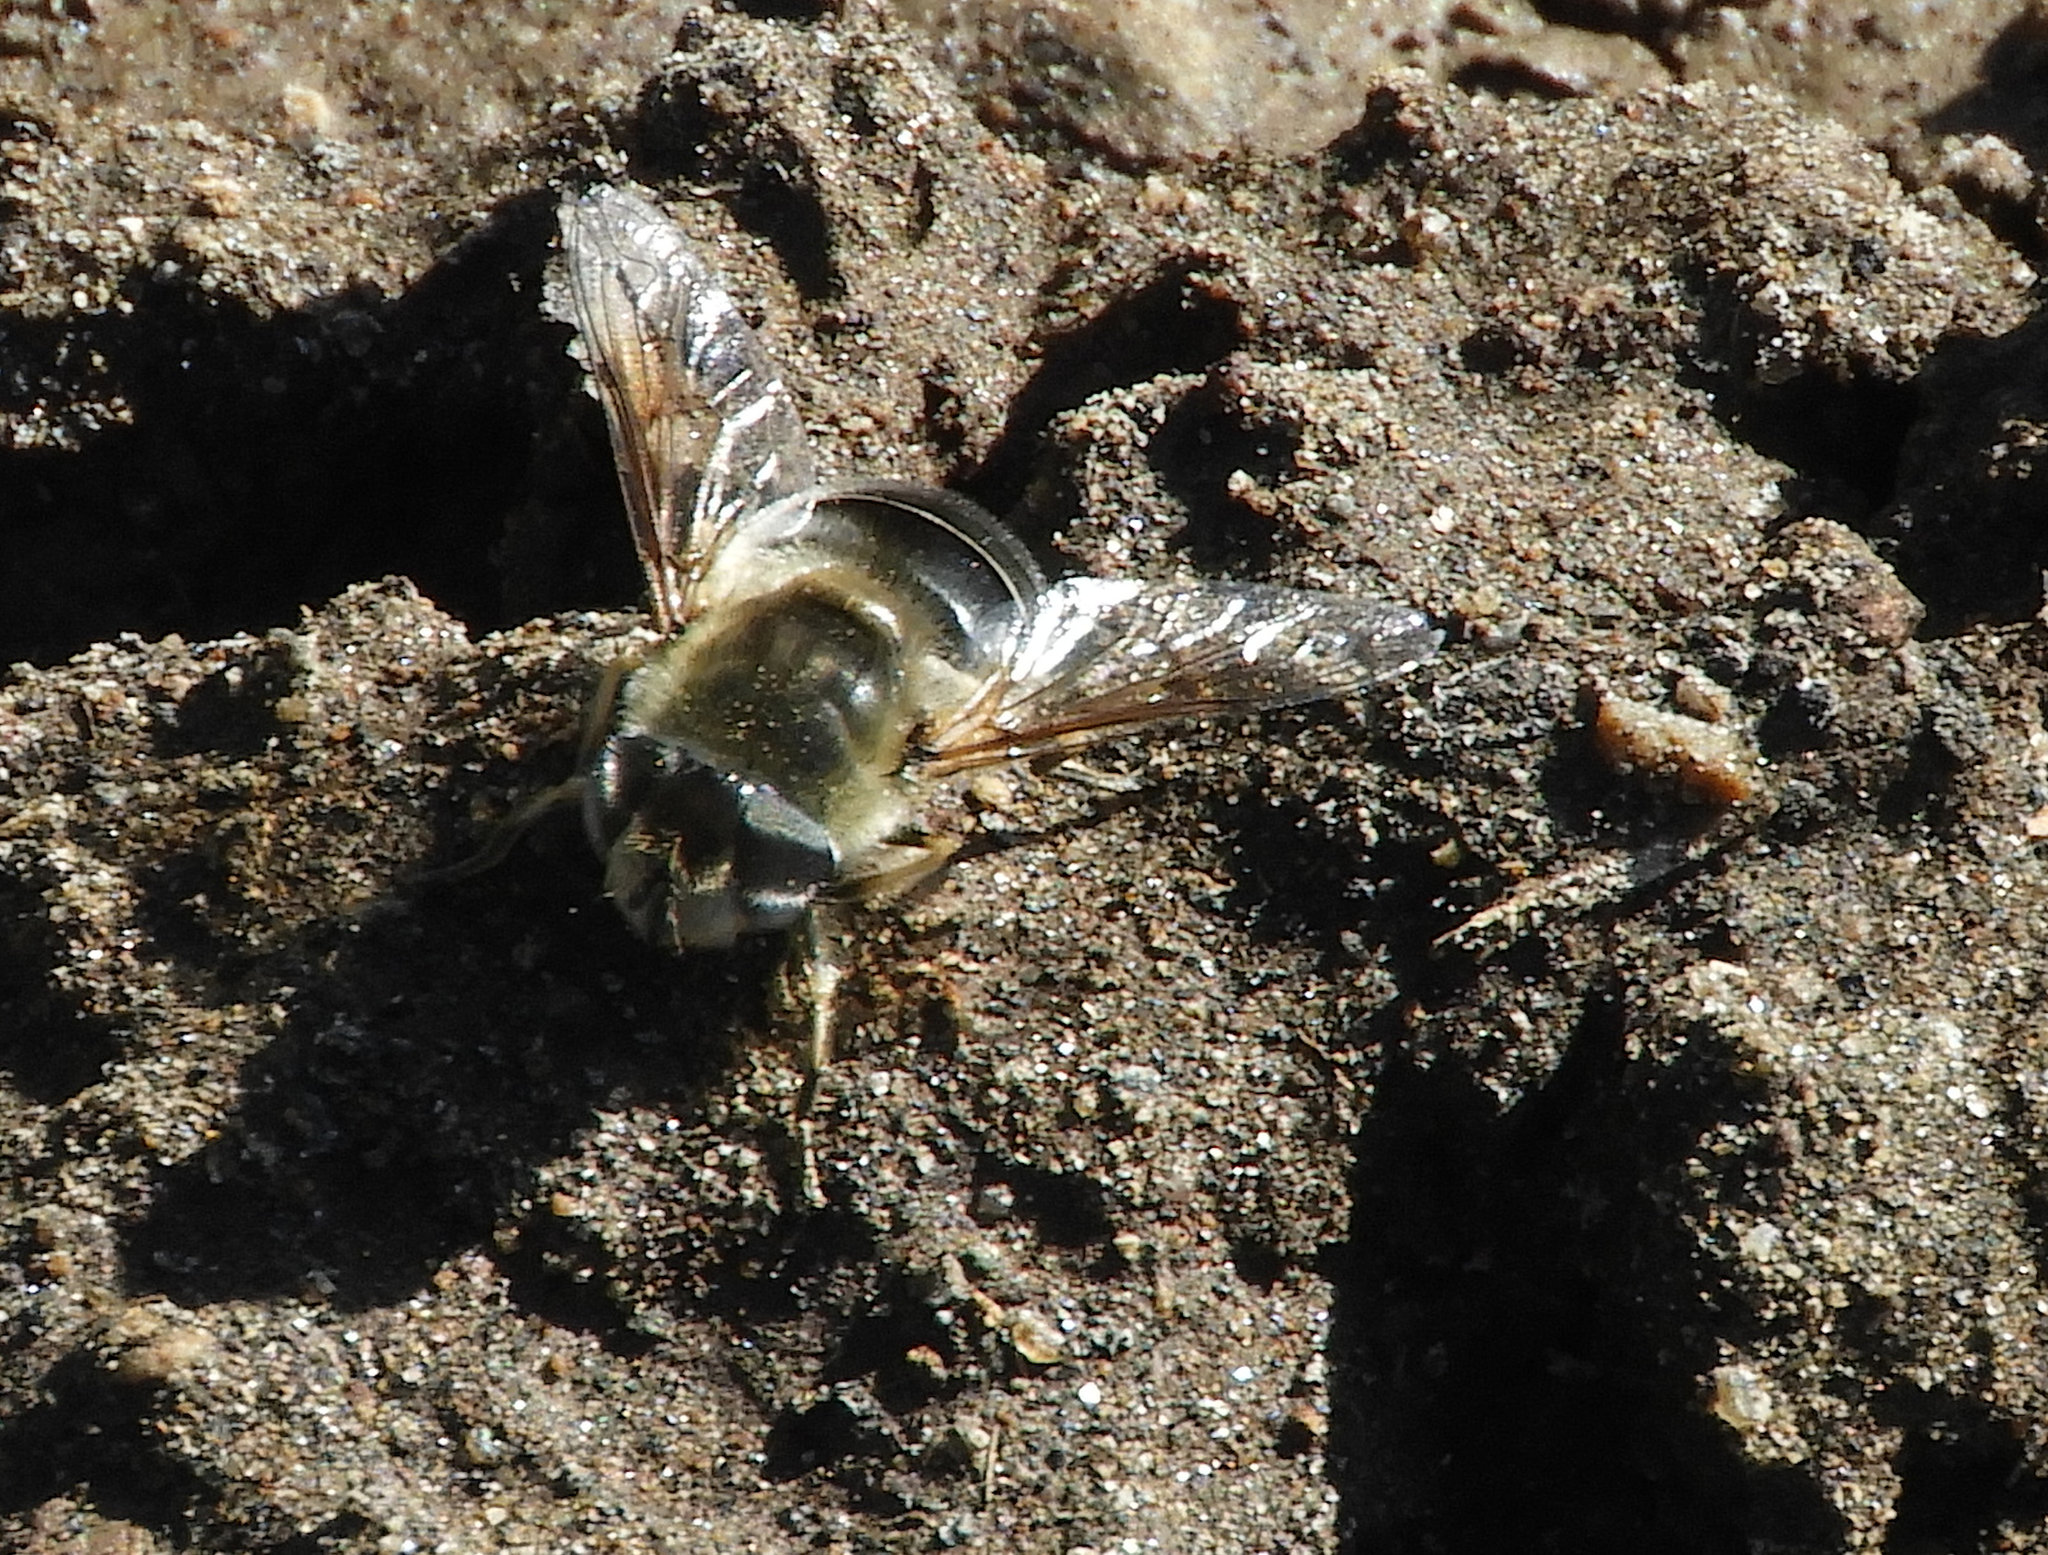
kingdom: Animalia
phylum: Arthropoda
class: Insecta
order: Diptera
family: Syrphidae
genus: Eristalis
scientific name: Eristalis stipator
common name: Yellow-shouldered drone fly
